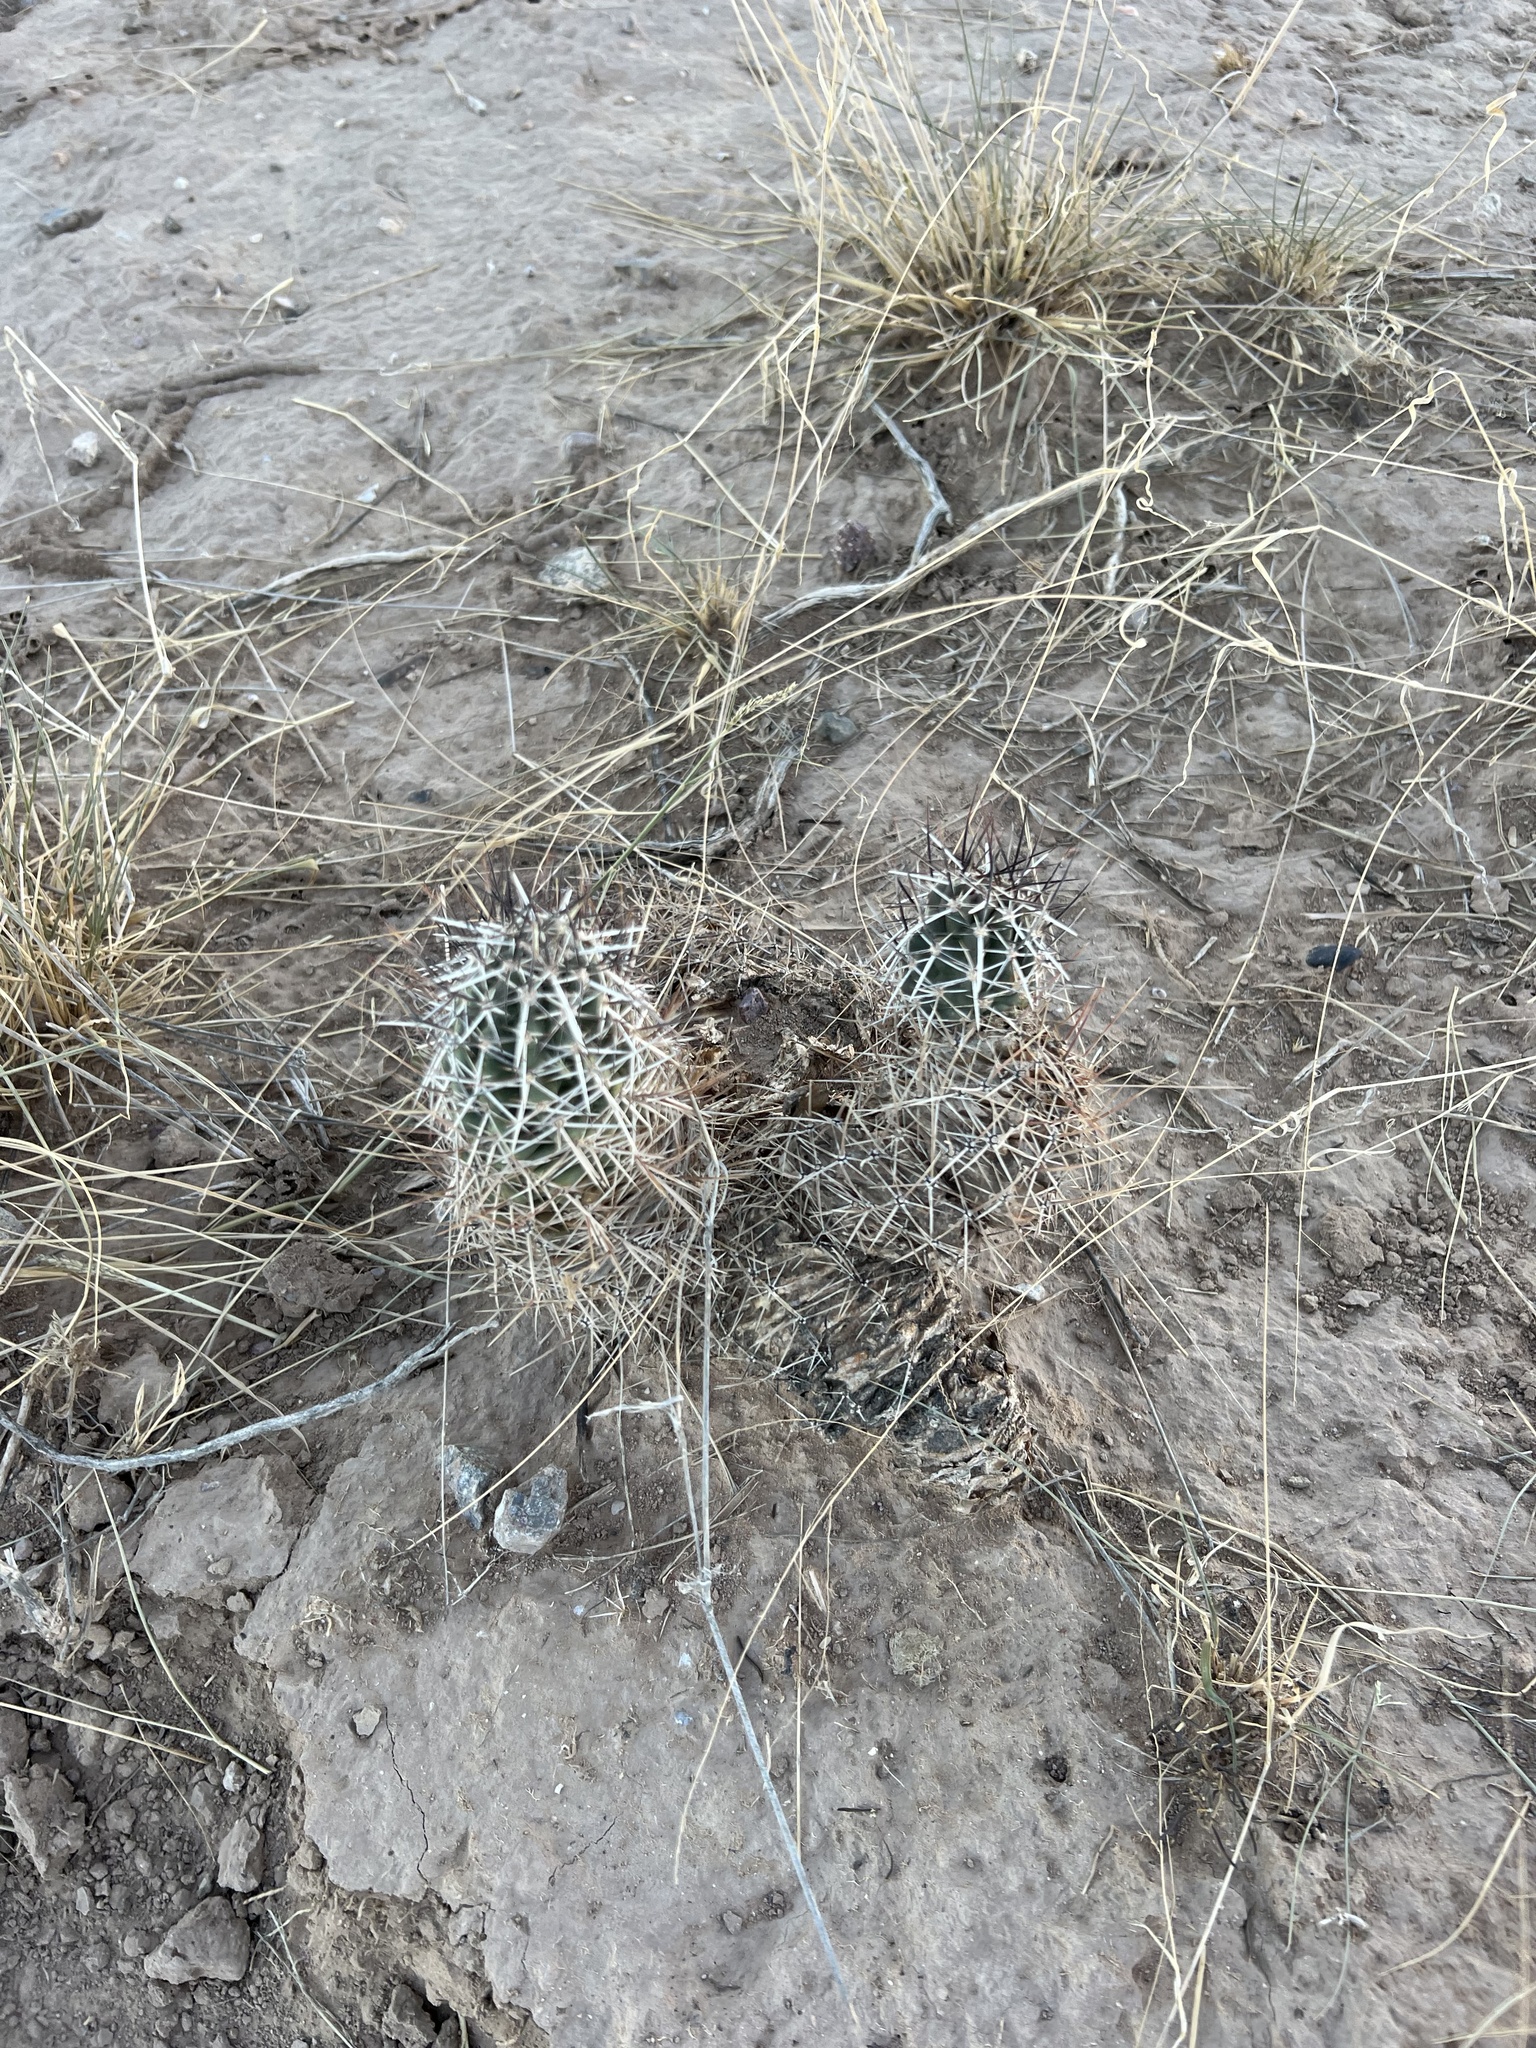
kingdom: Plantae
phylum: Tracheophyta
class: Magnoliopsida
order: Caryophyllales
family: Cactaceae
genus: Echinocereus
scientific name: Echinocereus fendleri
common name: Fendler's hedgehog cactus
